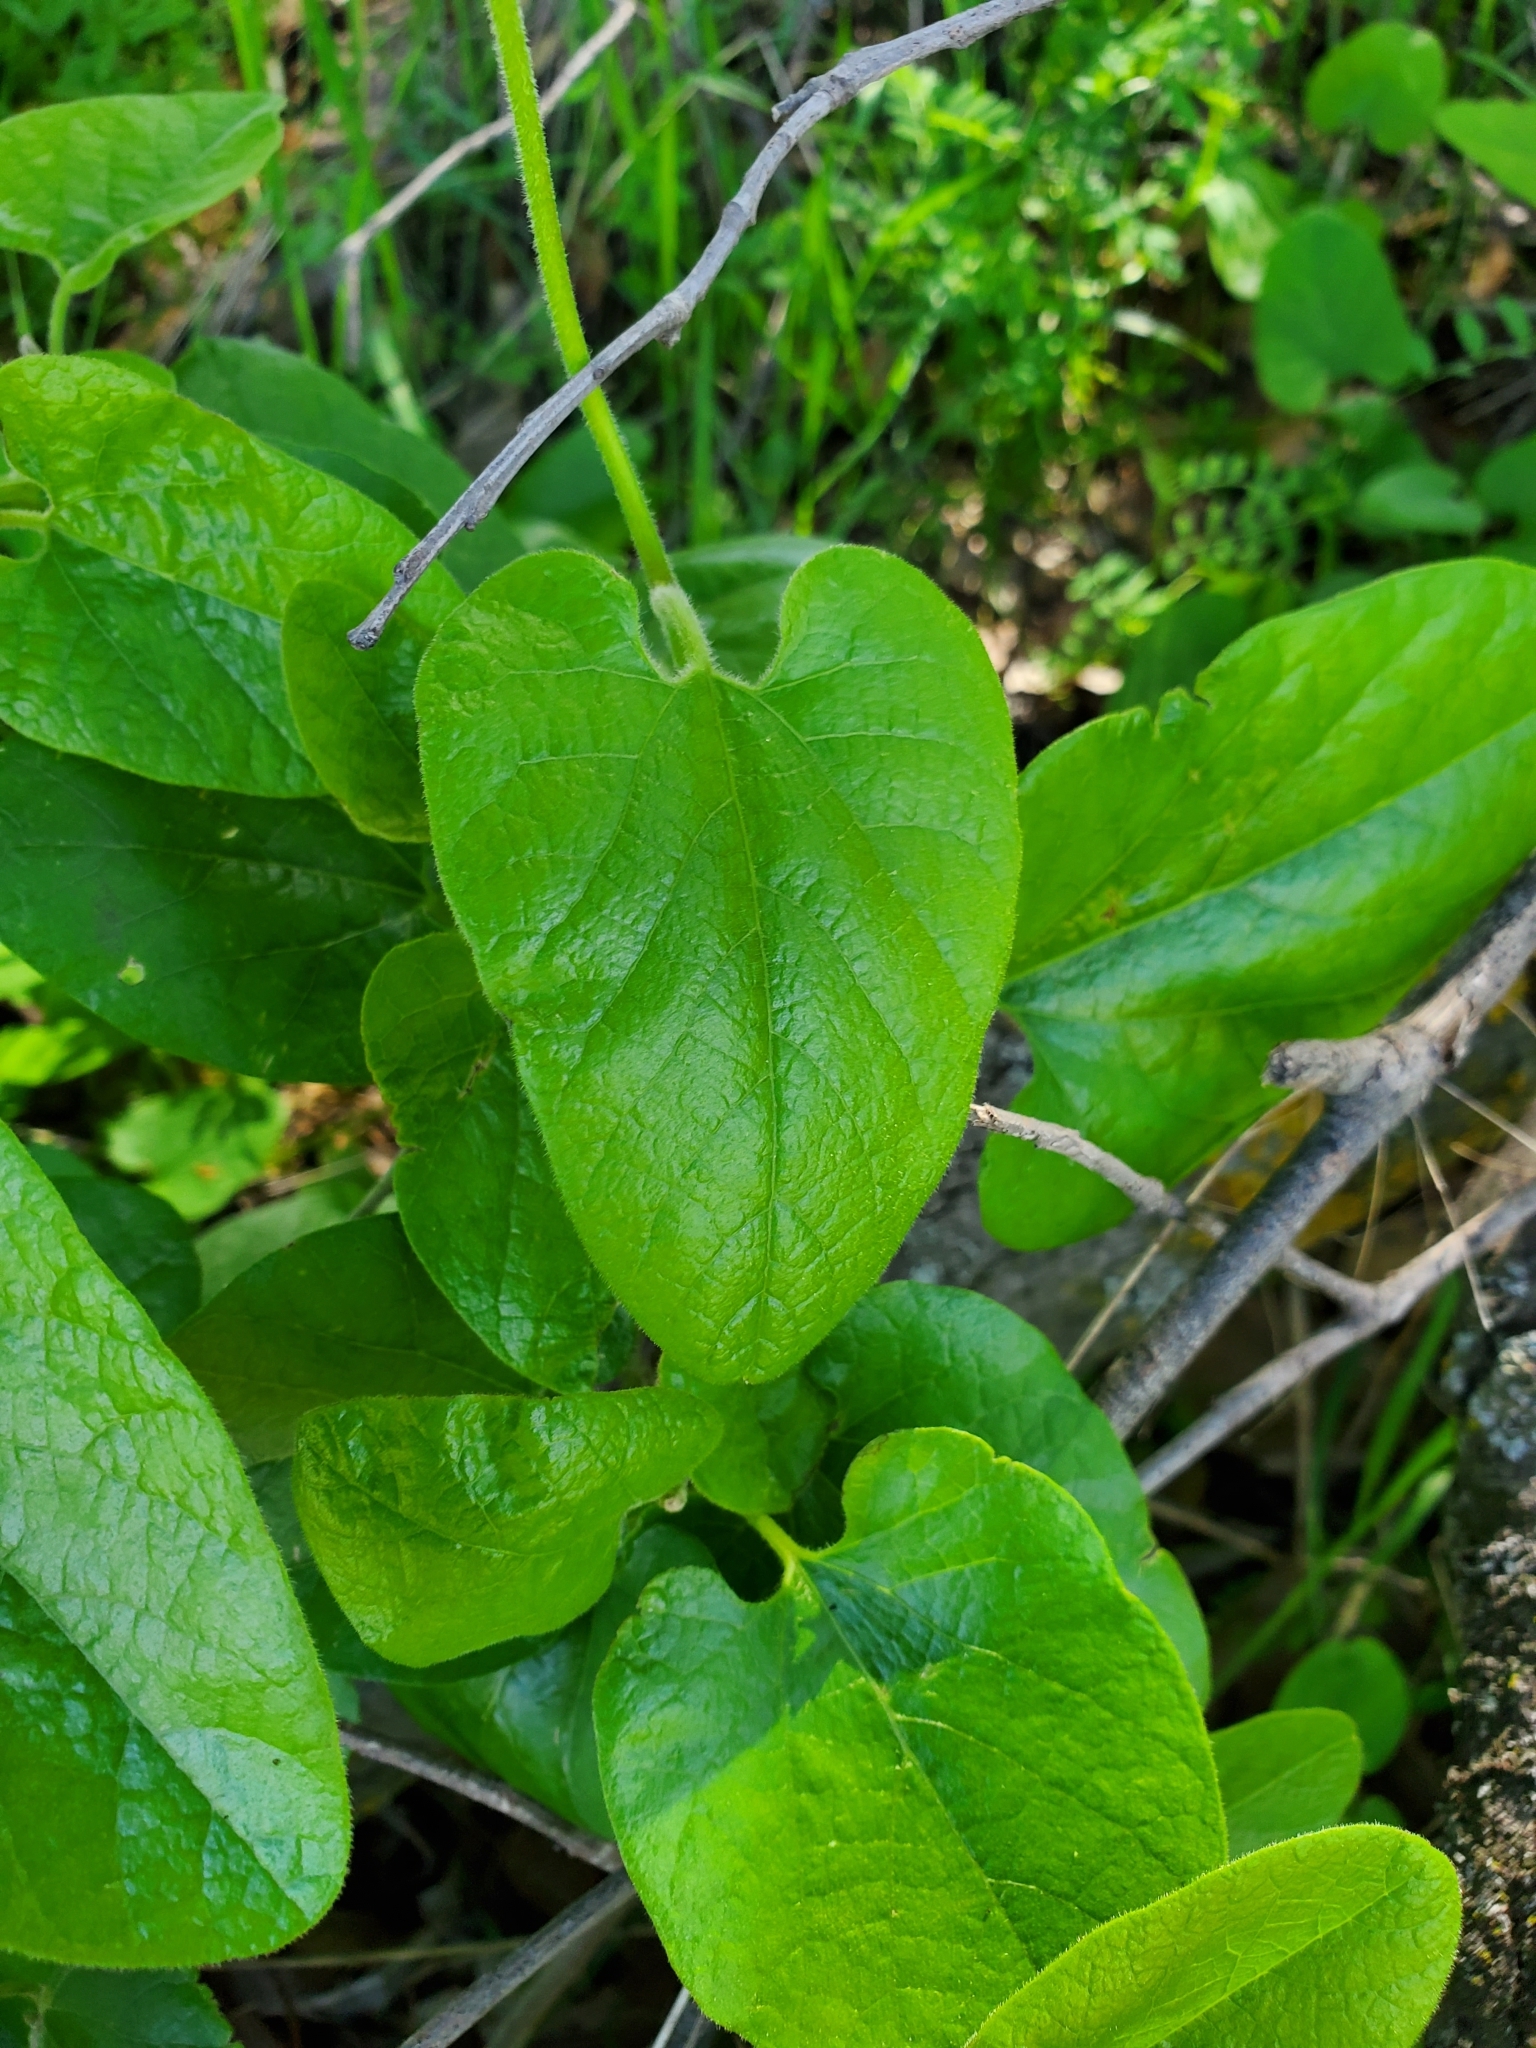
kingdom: Plantae
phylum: Tracheophyta
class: Magnoliopsida
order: Piperales
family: Aristolochiaceae
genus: Isotrema
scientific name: Isotrema californicum
